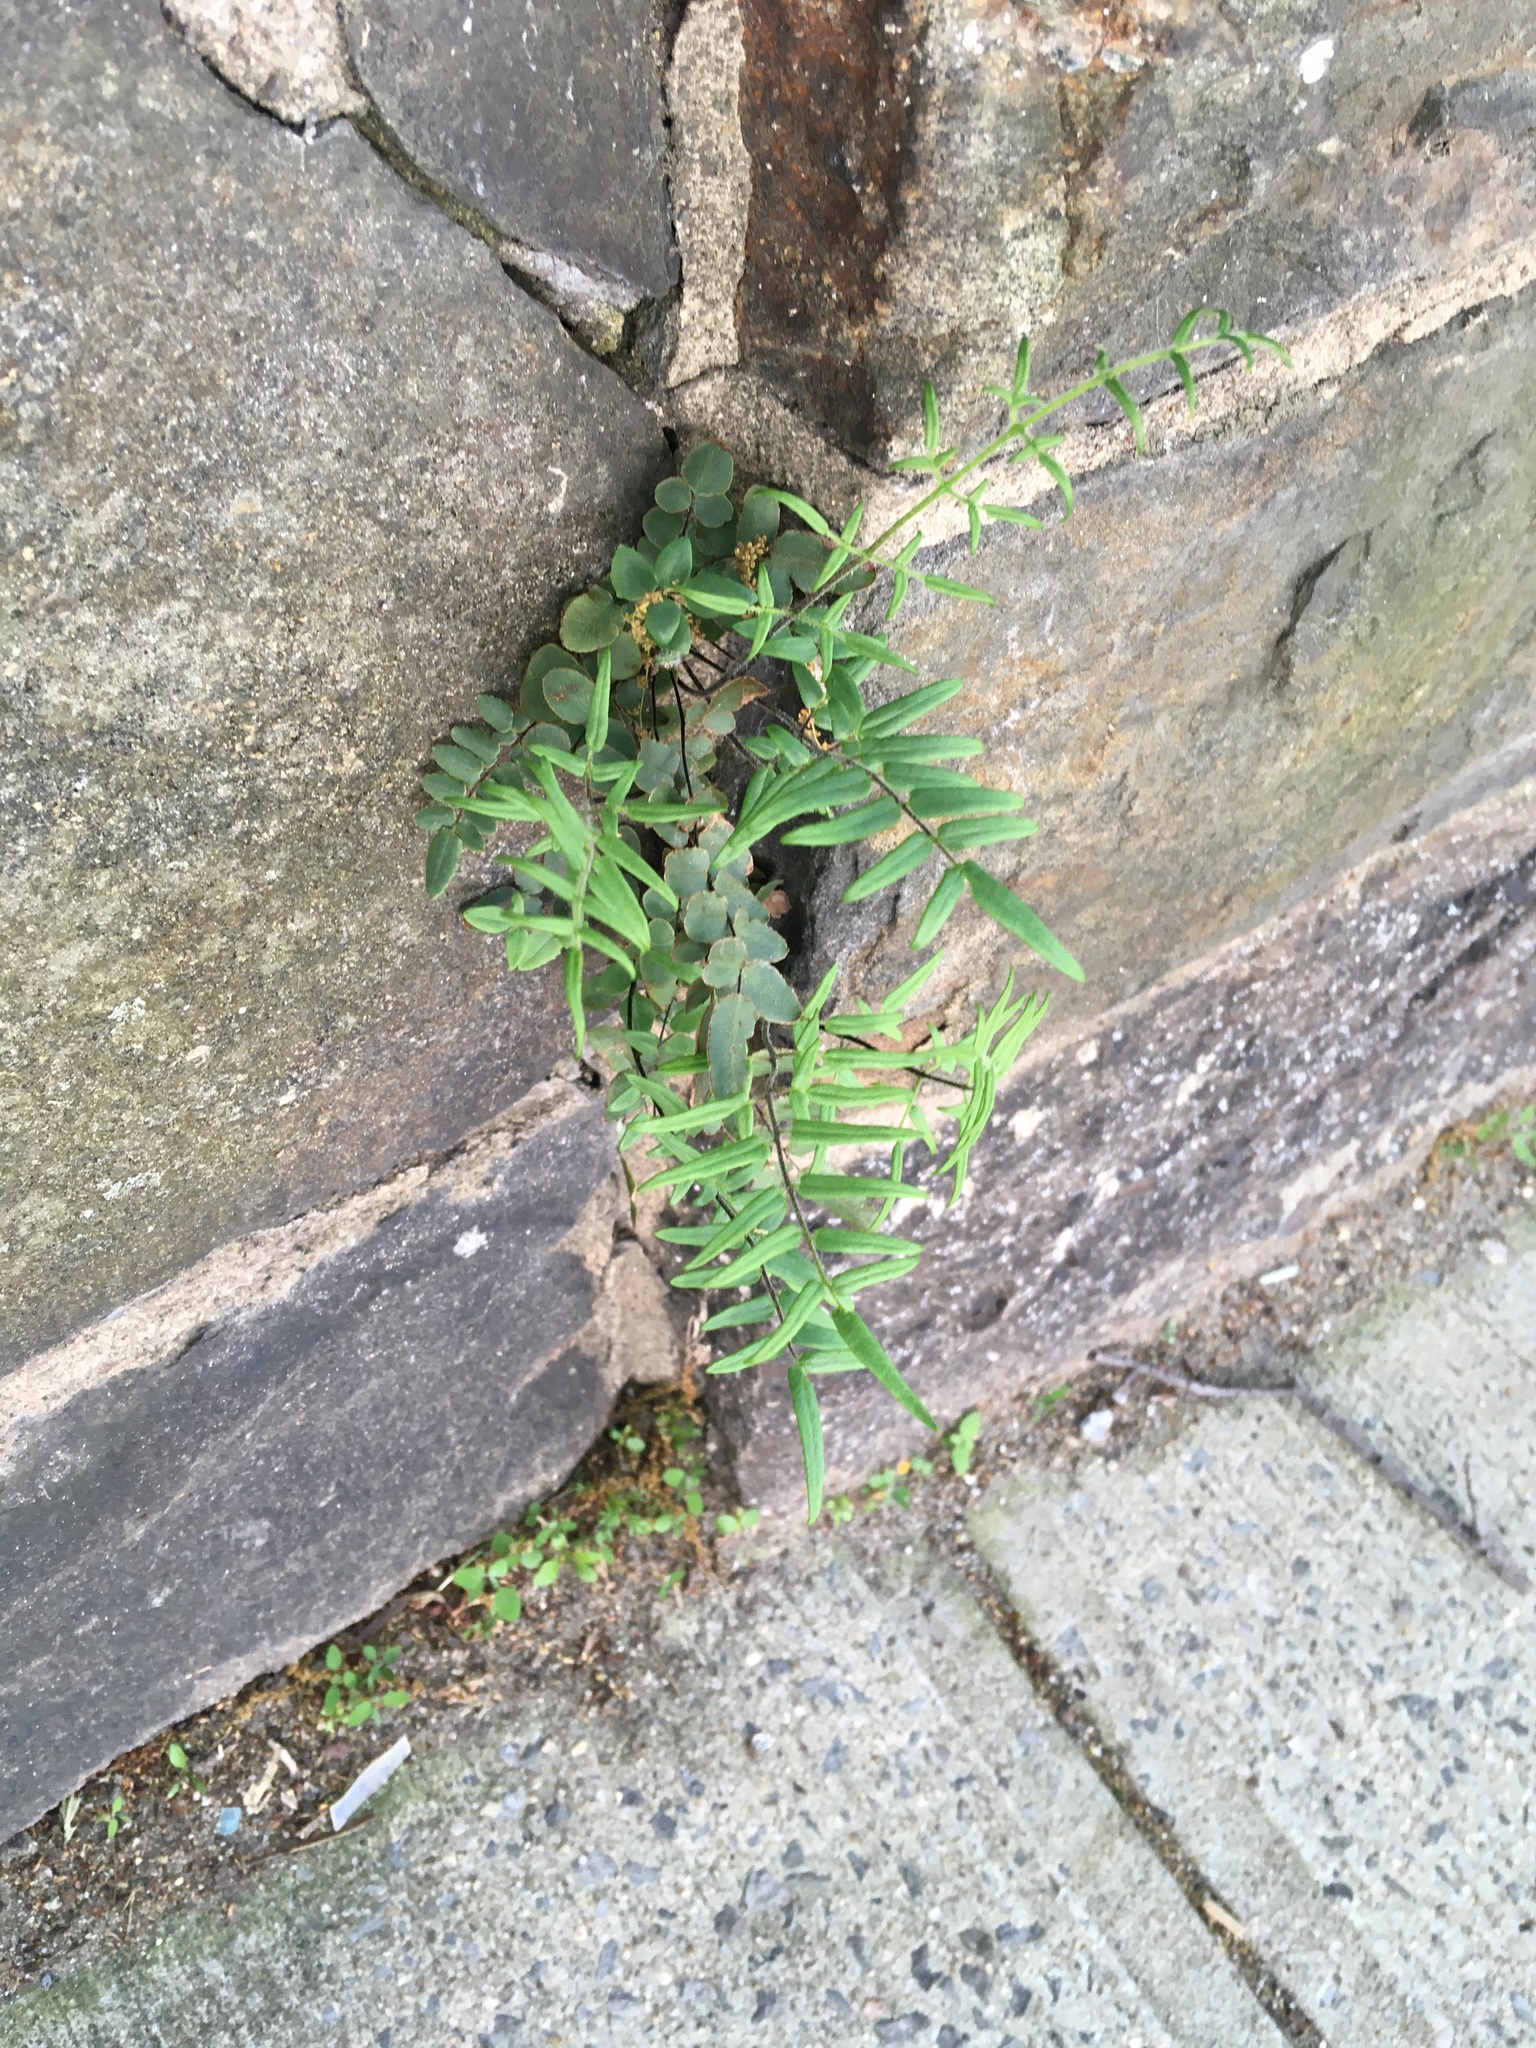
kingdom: Plantae
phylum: Tracheophyta
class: Polypodiopsida
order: Polypodiales
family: Pteridaceae
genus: Pellaea
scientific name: Pellaea atropurpurea
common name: Hairy cliffbrake
